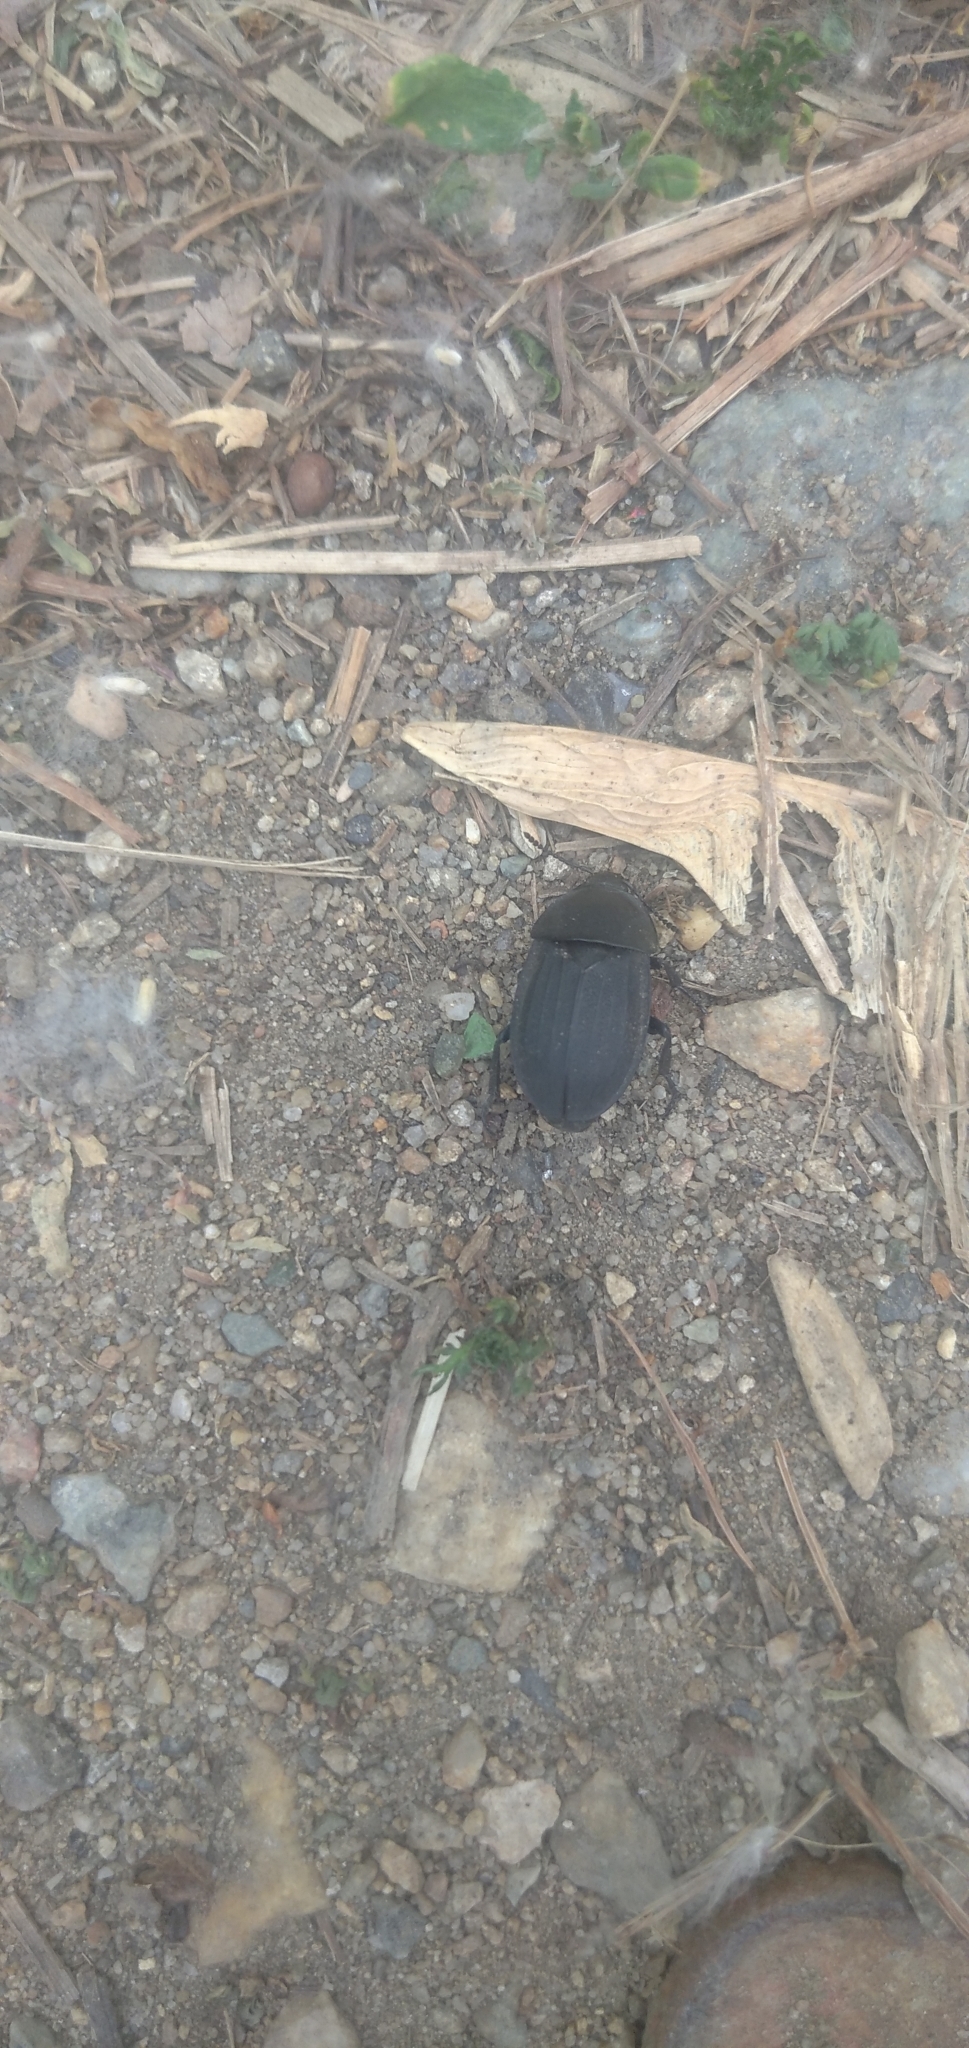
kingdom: Animalia
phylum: Arthropoda
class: Insecta
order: Coleoptera
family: Staphylinidae
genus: Silpha
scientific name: Silpha obscura
